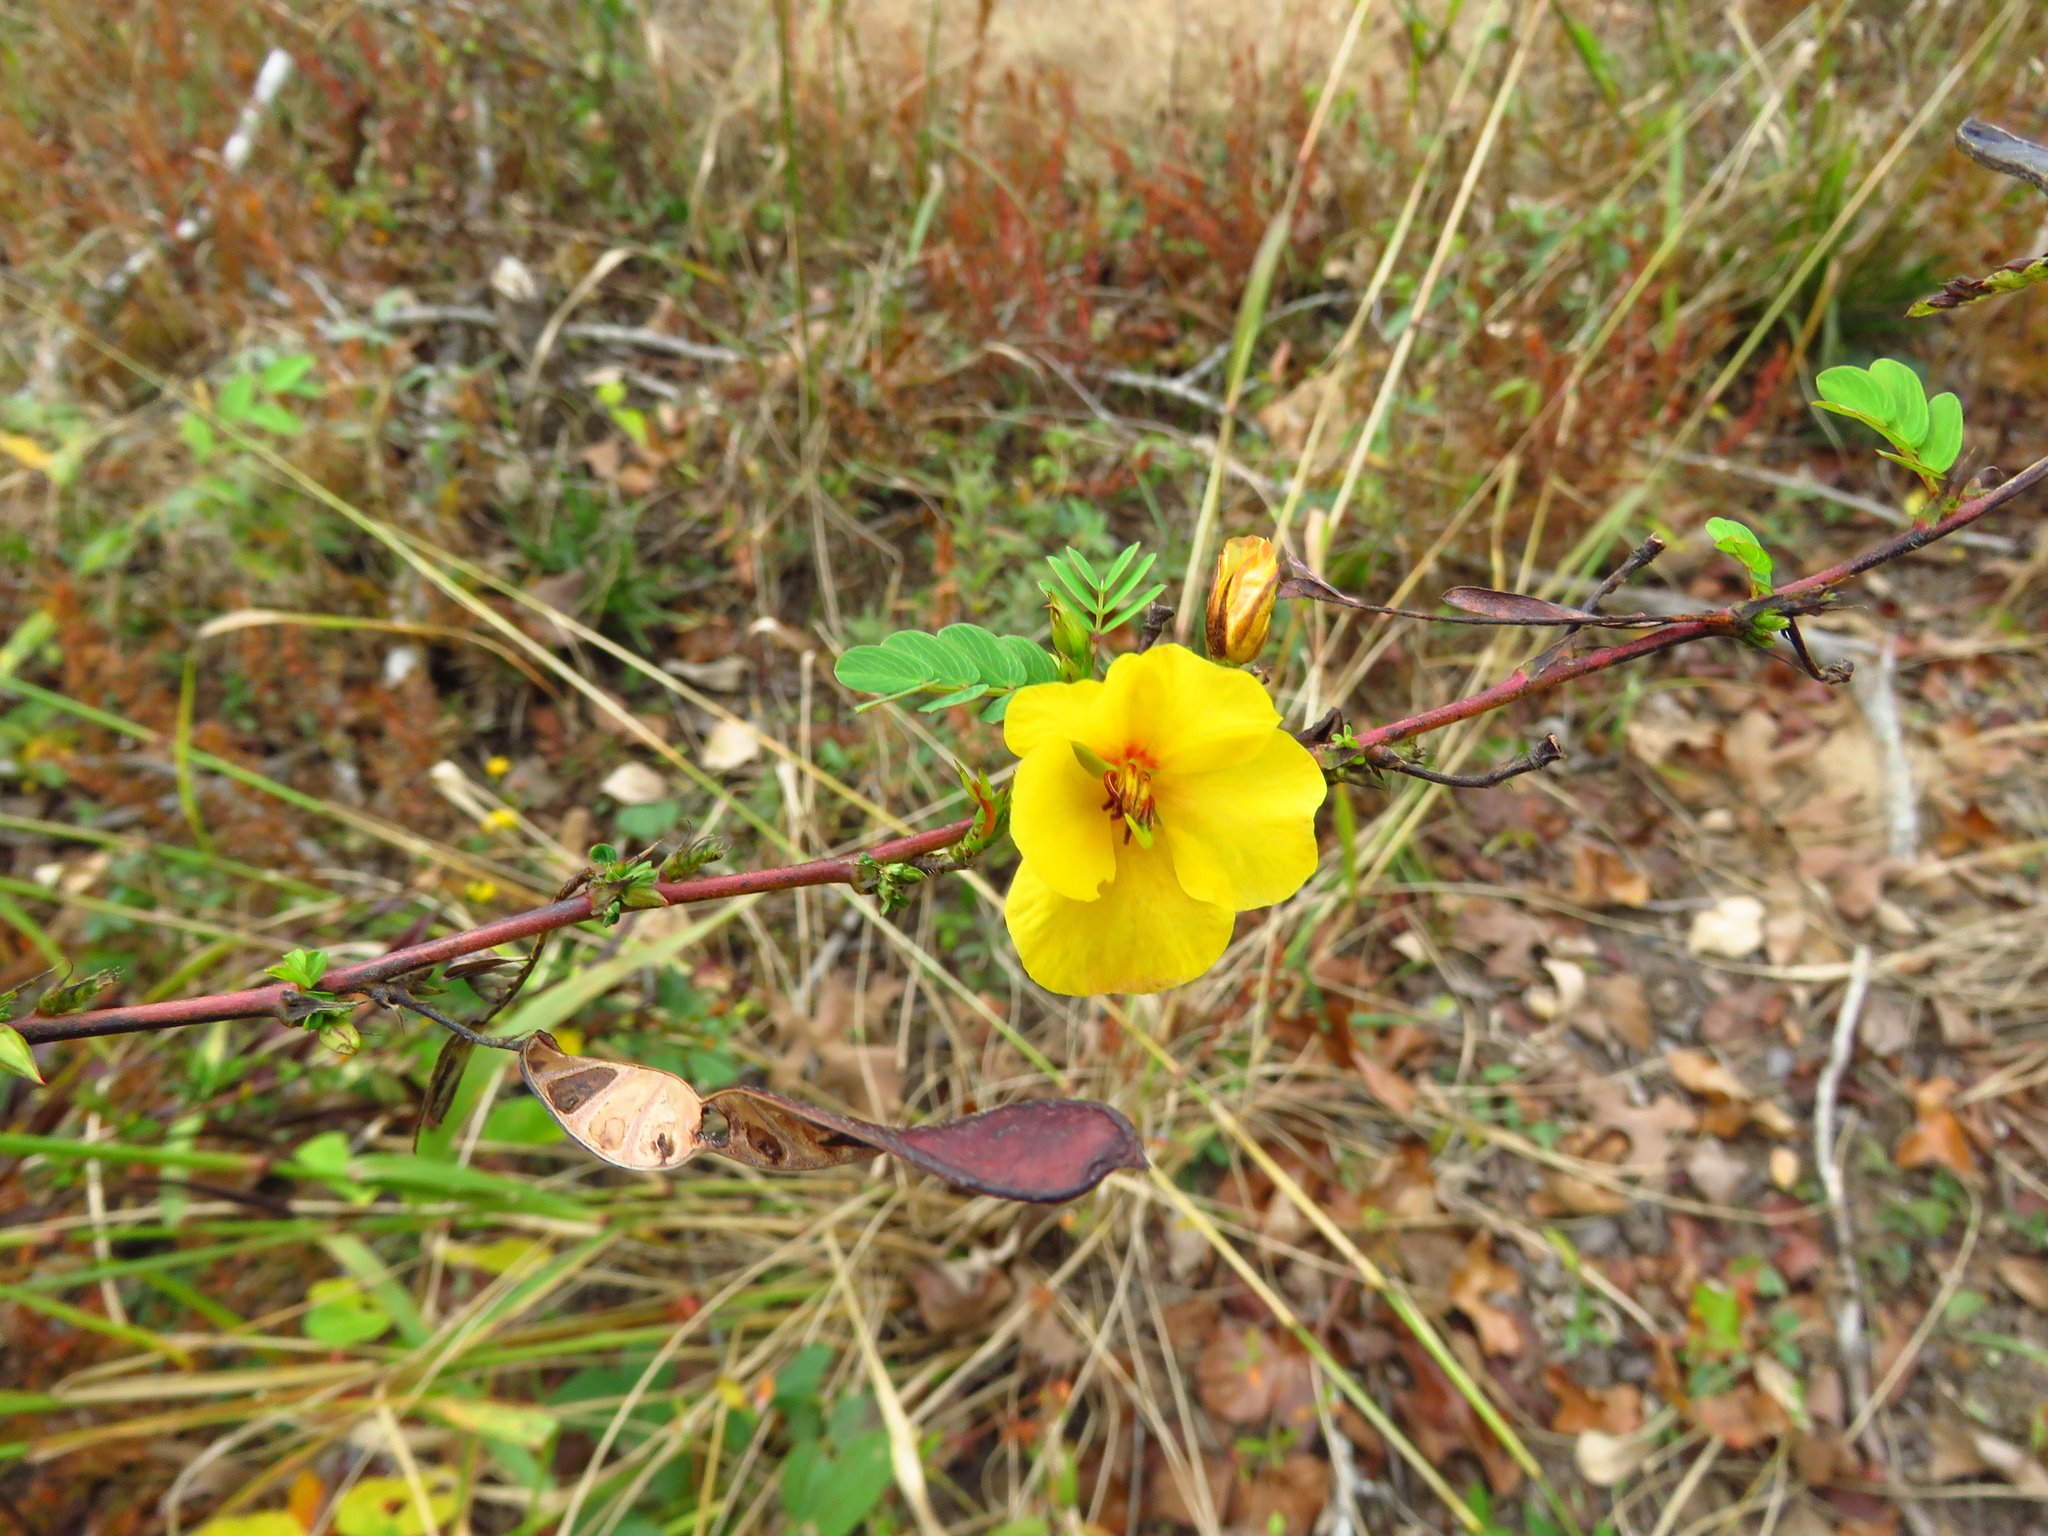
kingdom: Plantae
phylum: Tracheophyta
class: Magnoliopsida
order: Fabales
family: Fabaceae
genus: Chamaecrista
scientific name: Chamaecrista fasciculata
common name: Golden cassia
